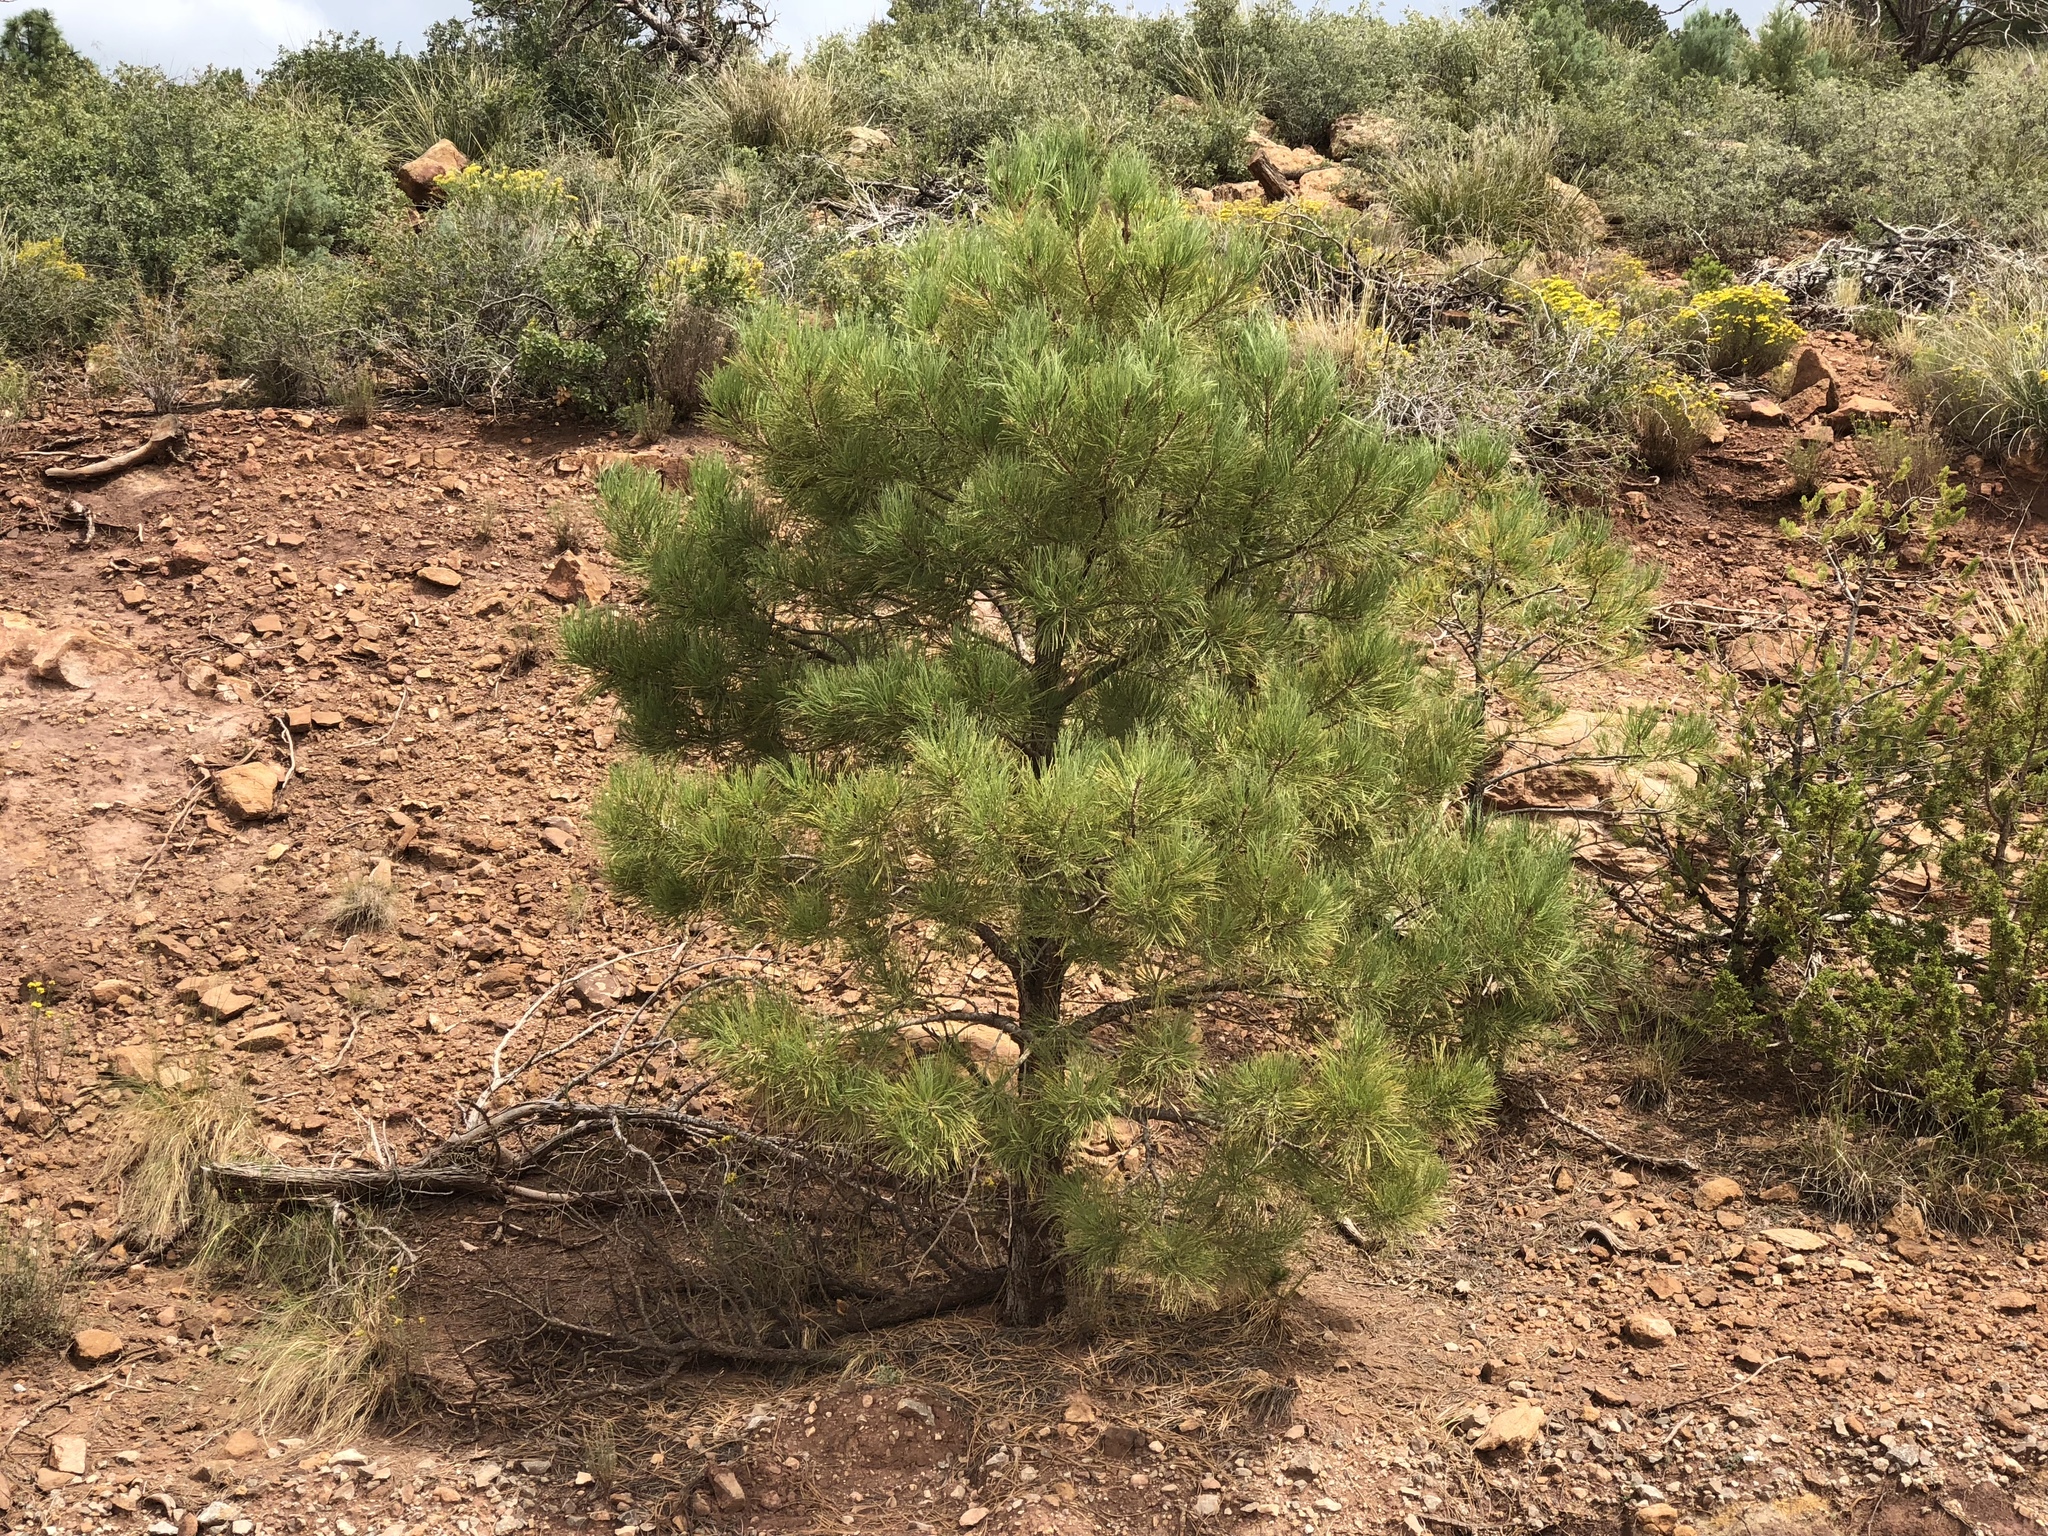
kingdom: Plantae
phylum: Tracheophyta
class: Pinopsida
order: Pinales
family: Pinaceae
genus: Pinus
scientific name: Pinus ponderosa
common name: Western yellow-pine
